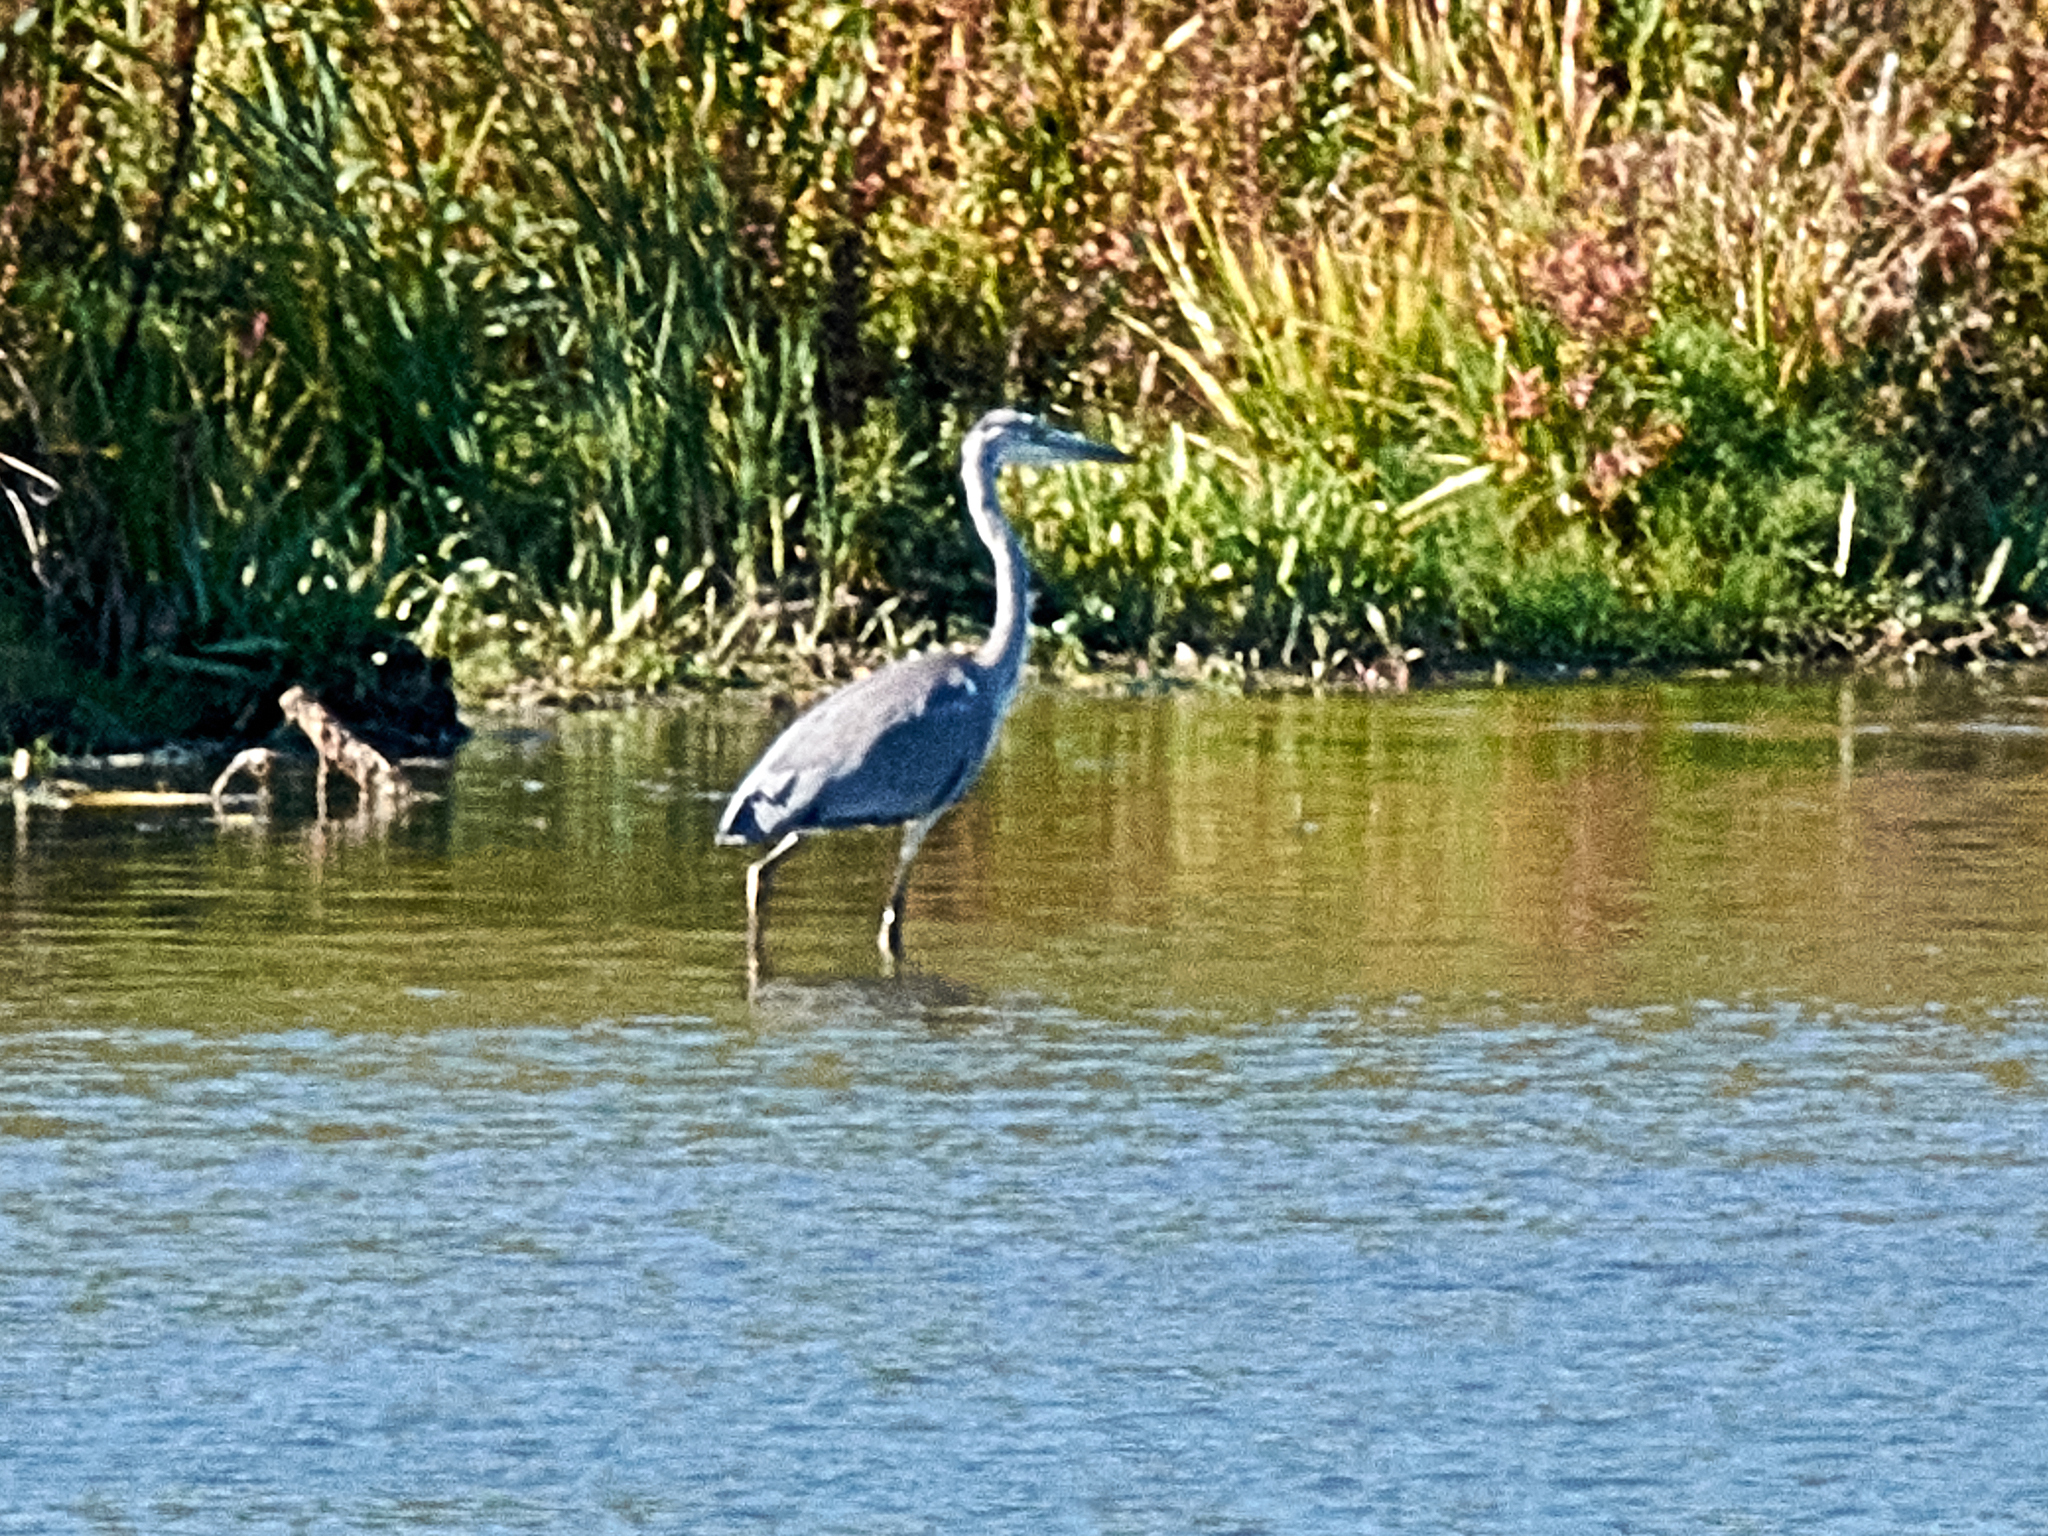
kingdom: Animalia
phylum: Chordata
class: Aves
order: Pelecaniformes
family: Ardeidae
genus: Ardea
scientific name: Ardea cinerea
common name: Grey heron
